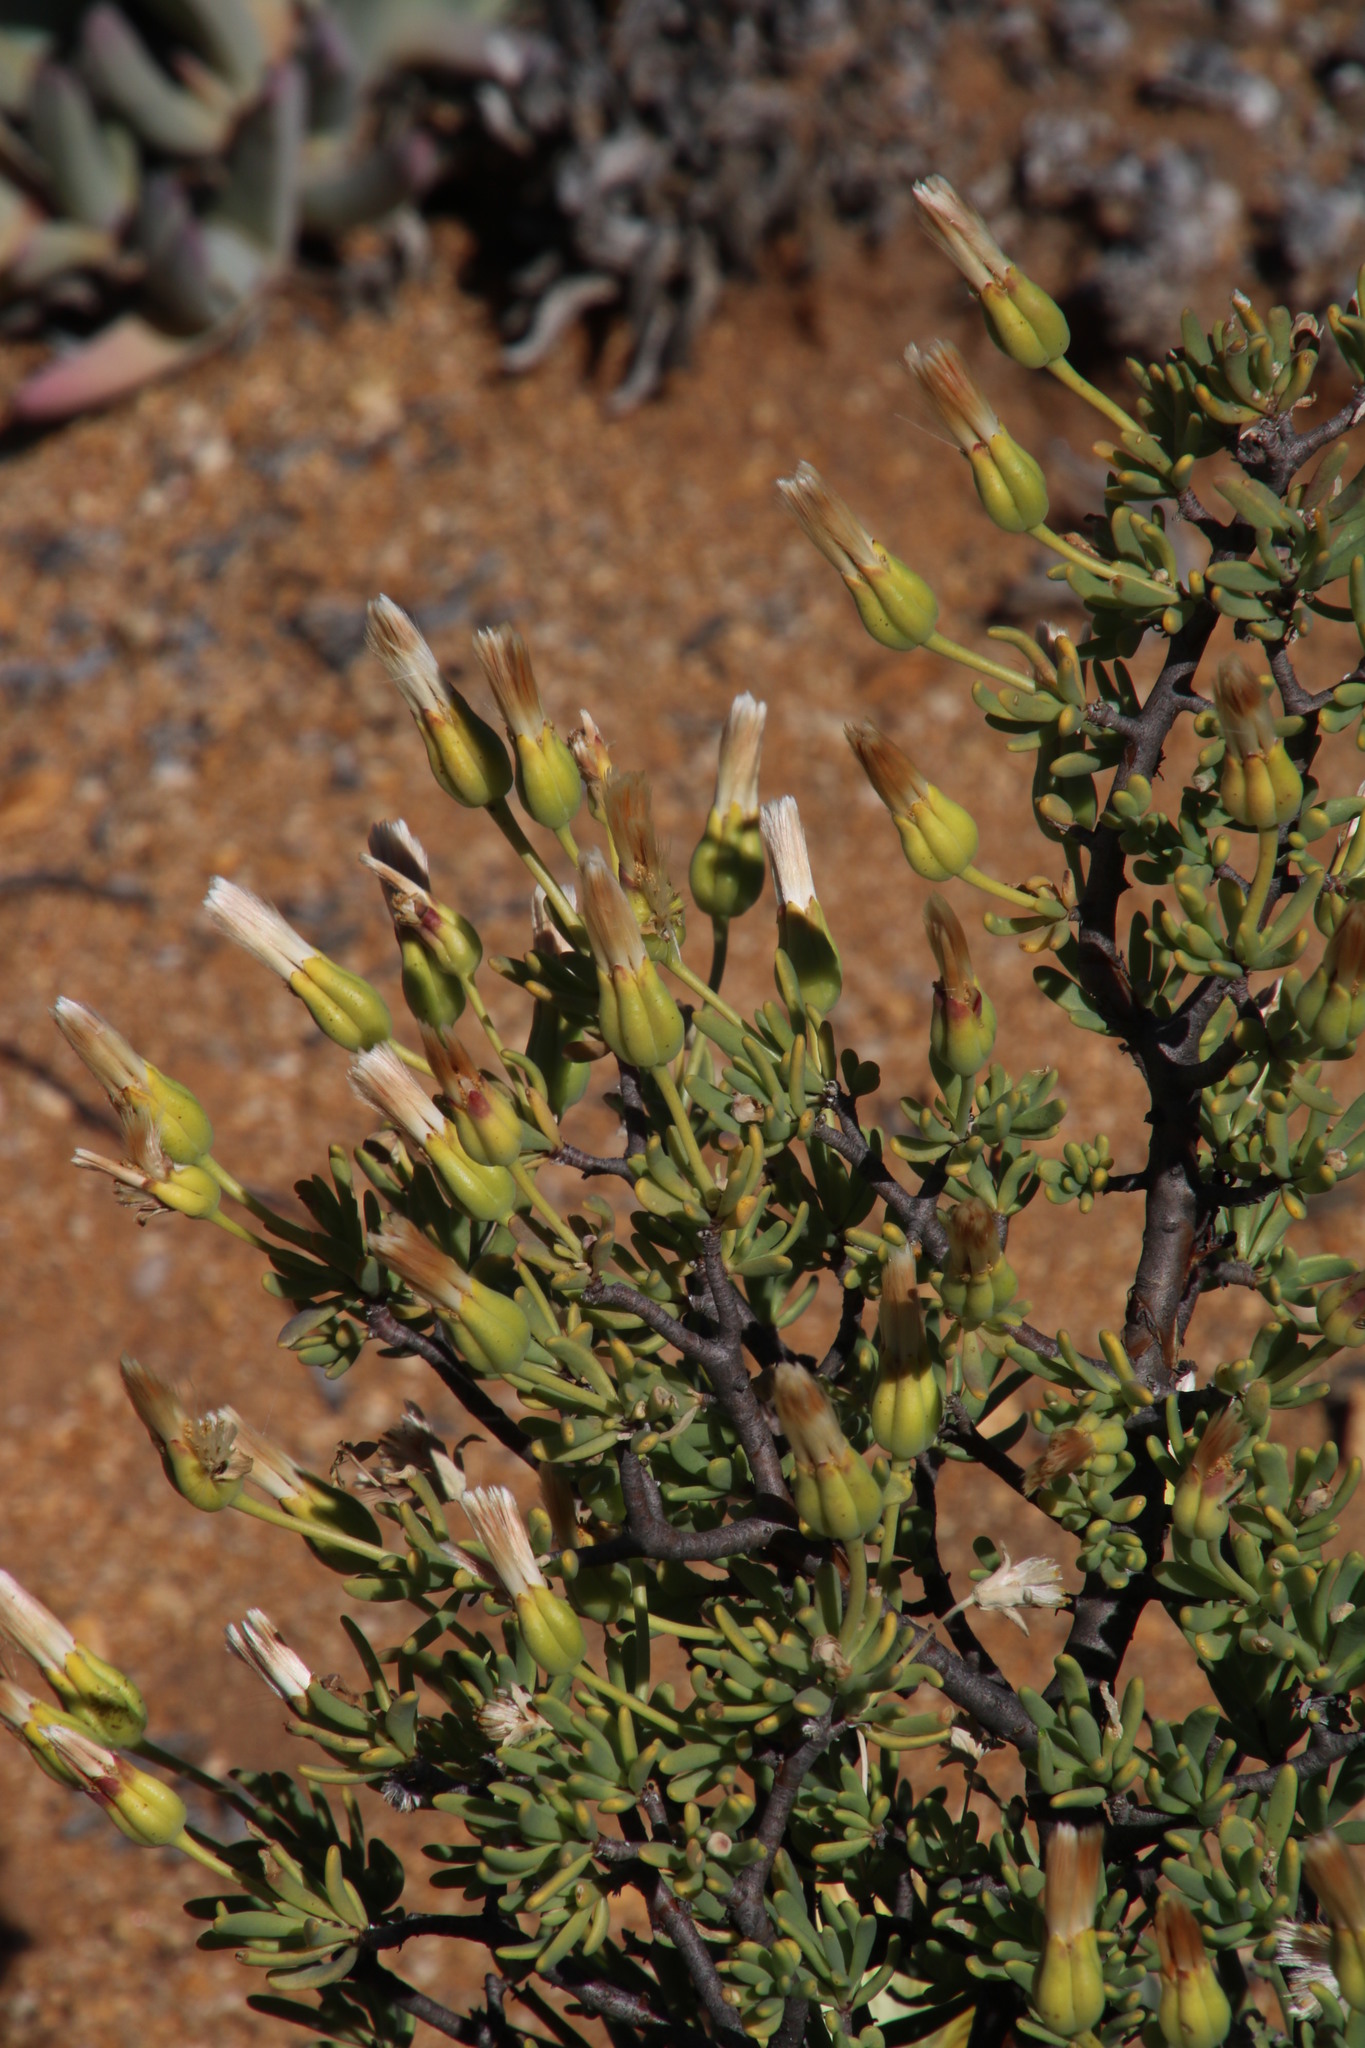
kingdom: Plantae
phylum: Tracheophyta
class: Magnoliopsida
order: Asterales
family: Asteraceae
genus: Othonna
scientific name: Othonna arbuscula
